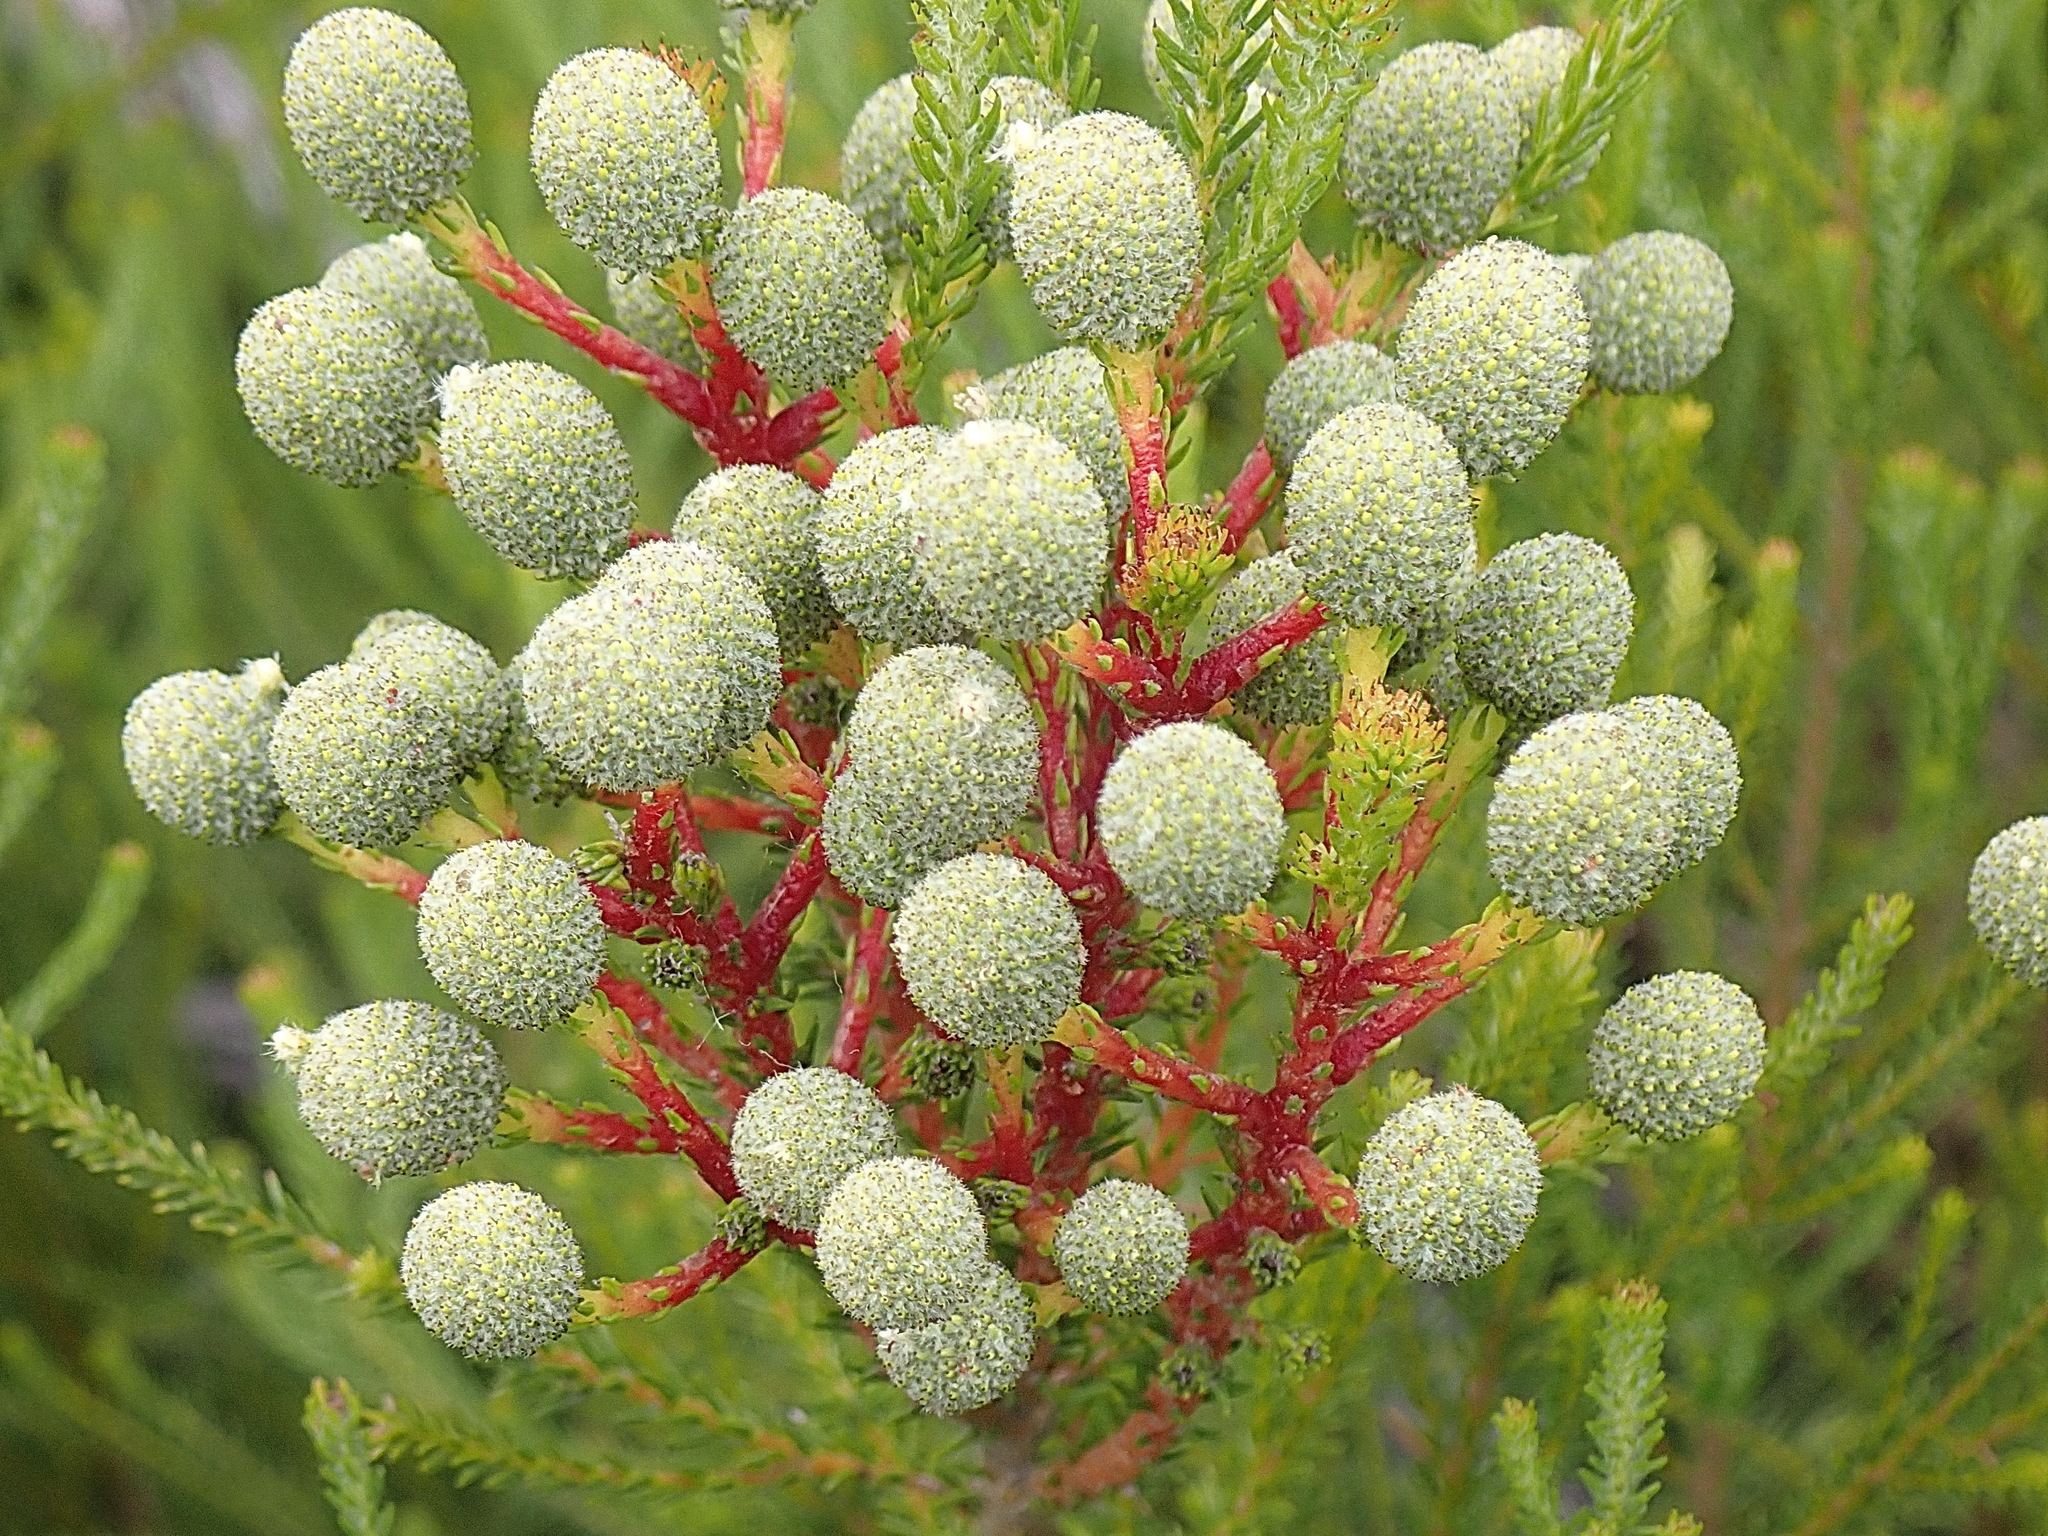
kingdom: Plantae
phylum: Tracheophyta
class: Magnoliopsida
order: Bruniales
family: Bruniaceae
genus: Berzelia
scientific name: Berzelia intermedia
